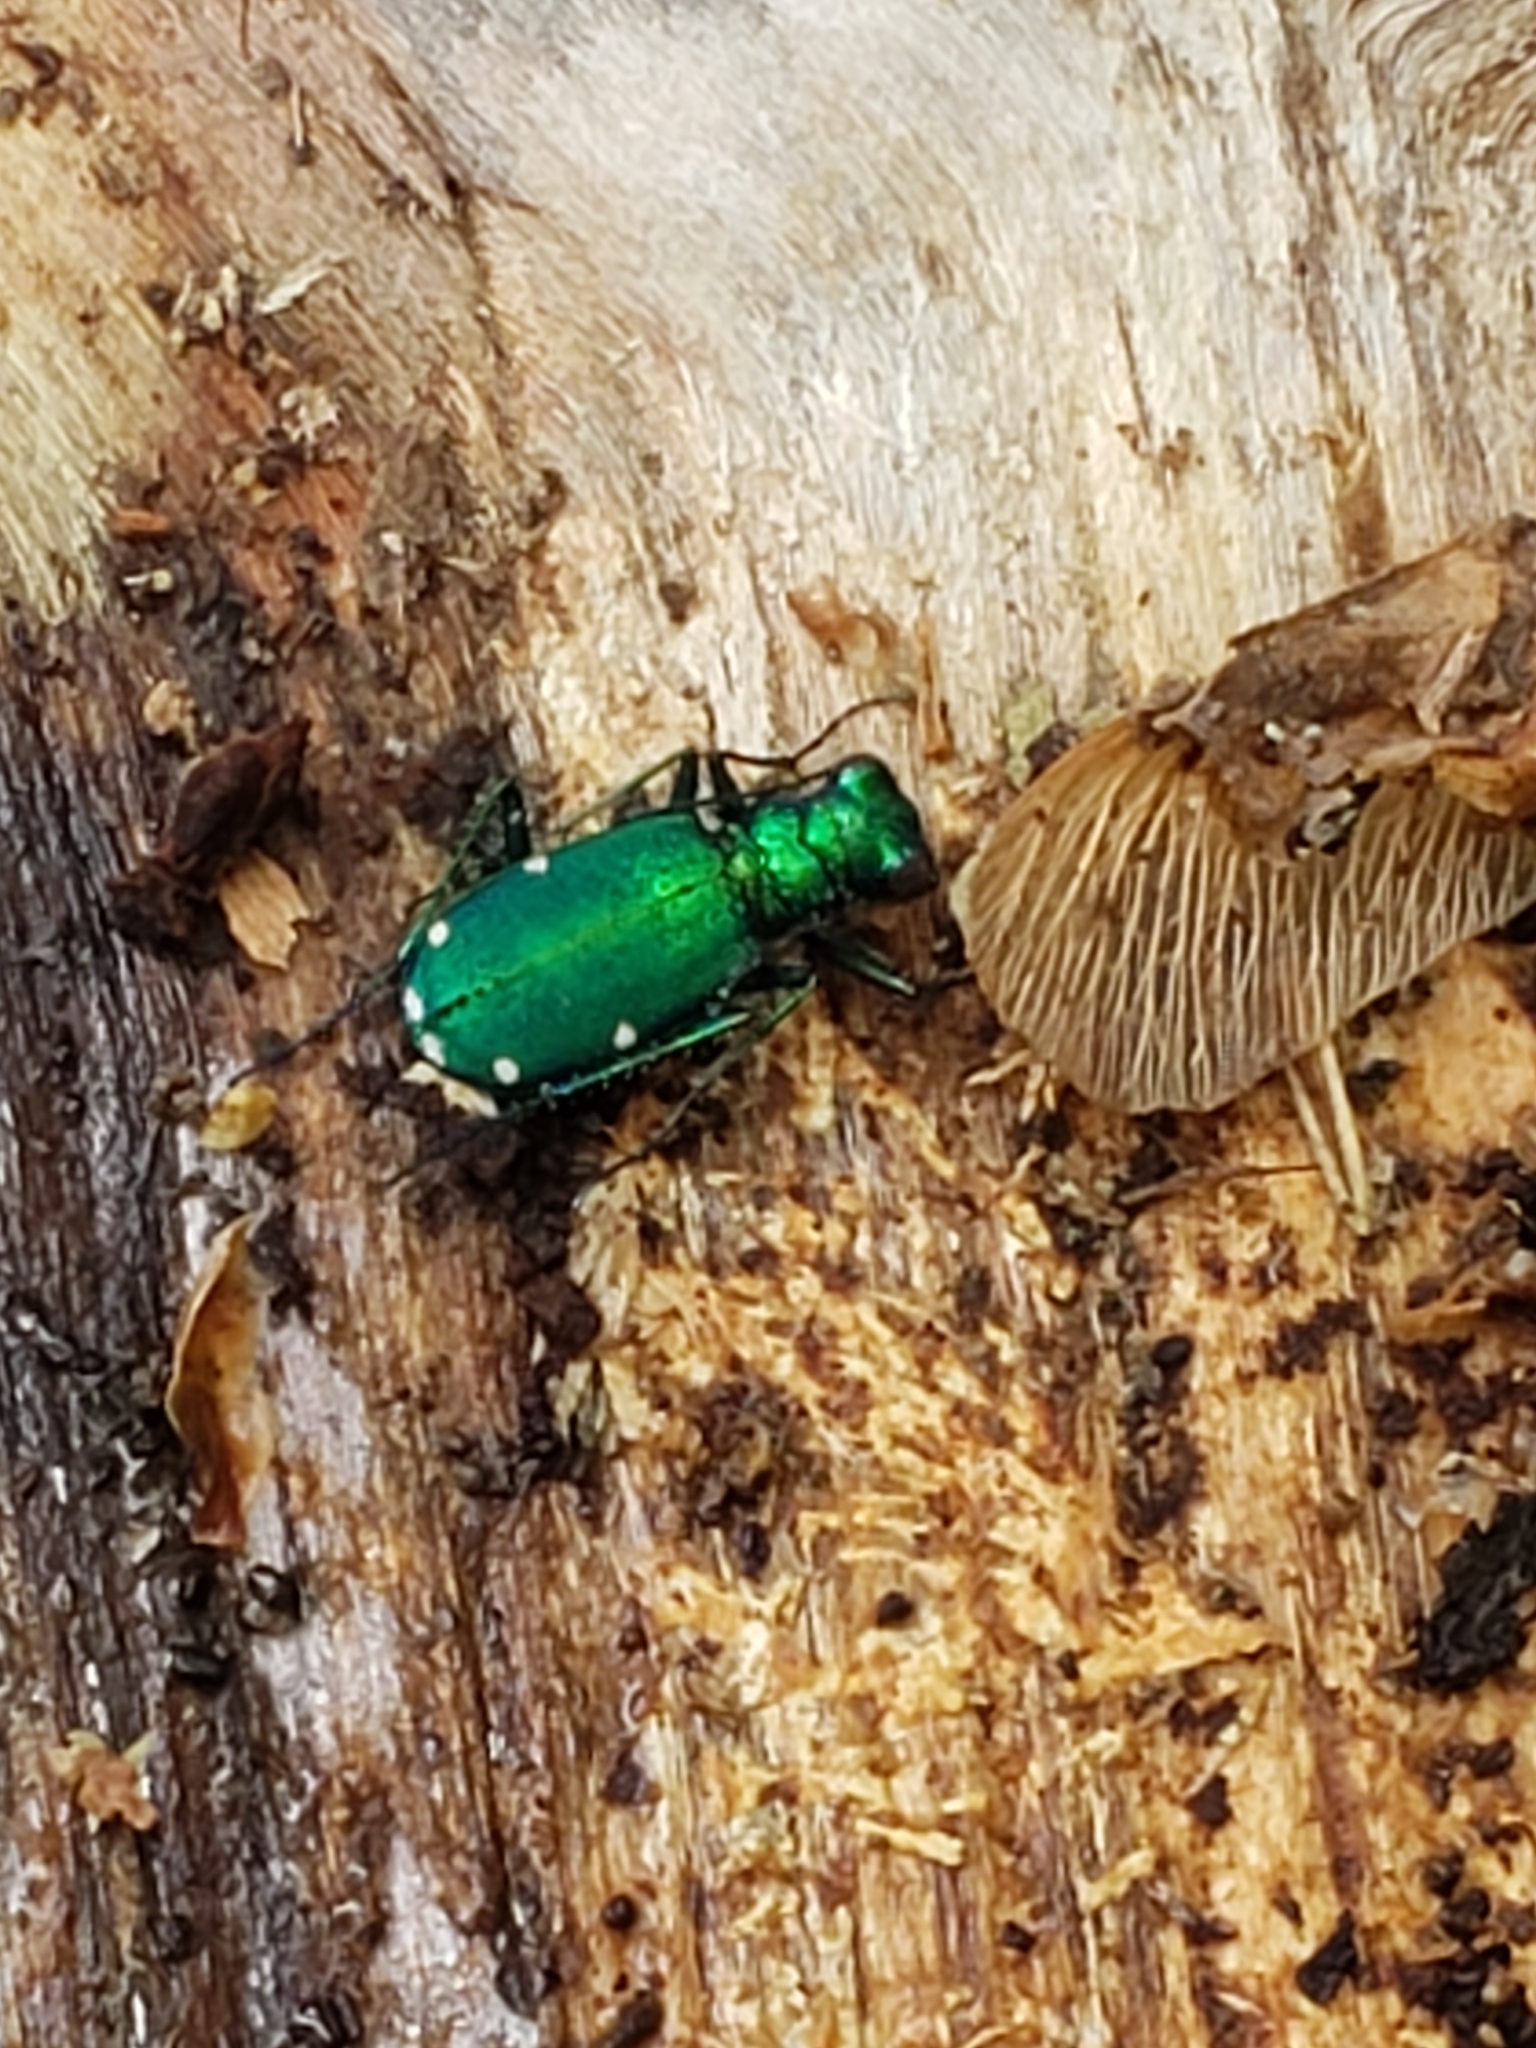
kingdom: Animalia
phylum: Arthropoda
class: Insecta
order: Coleoptera
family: Carabidae
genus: Cicindela
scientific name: Cicindela sexguttata
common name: Six-spotted tiger beetle
